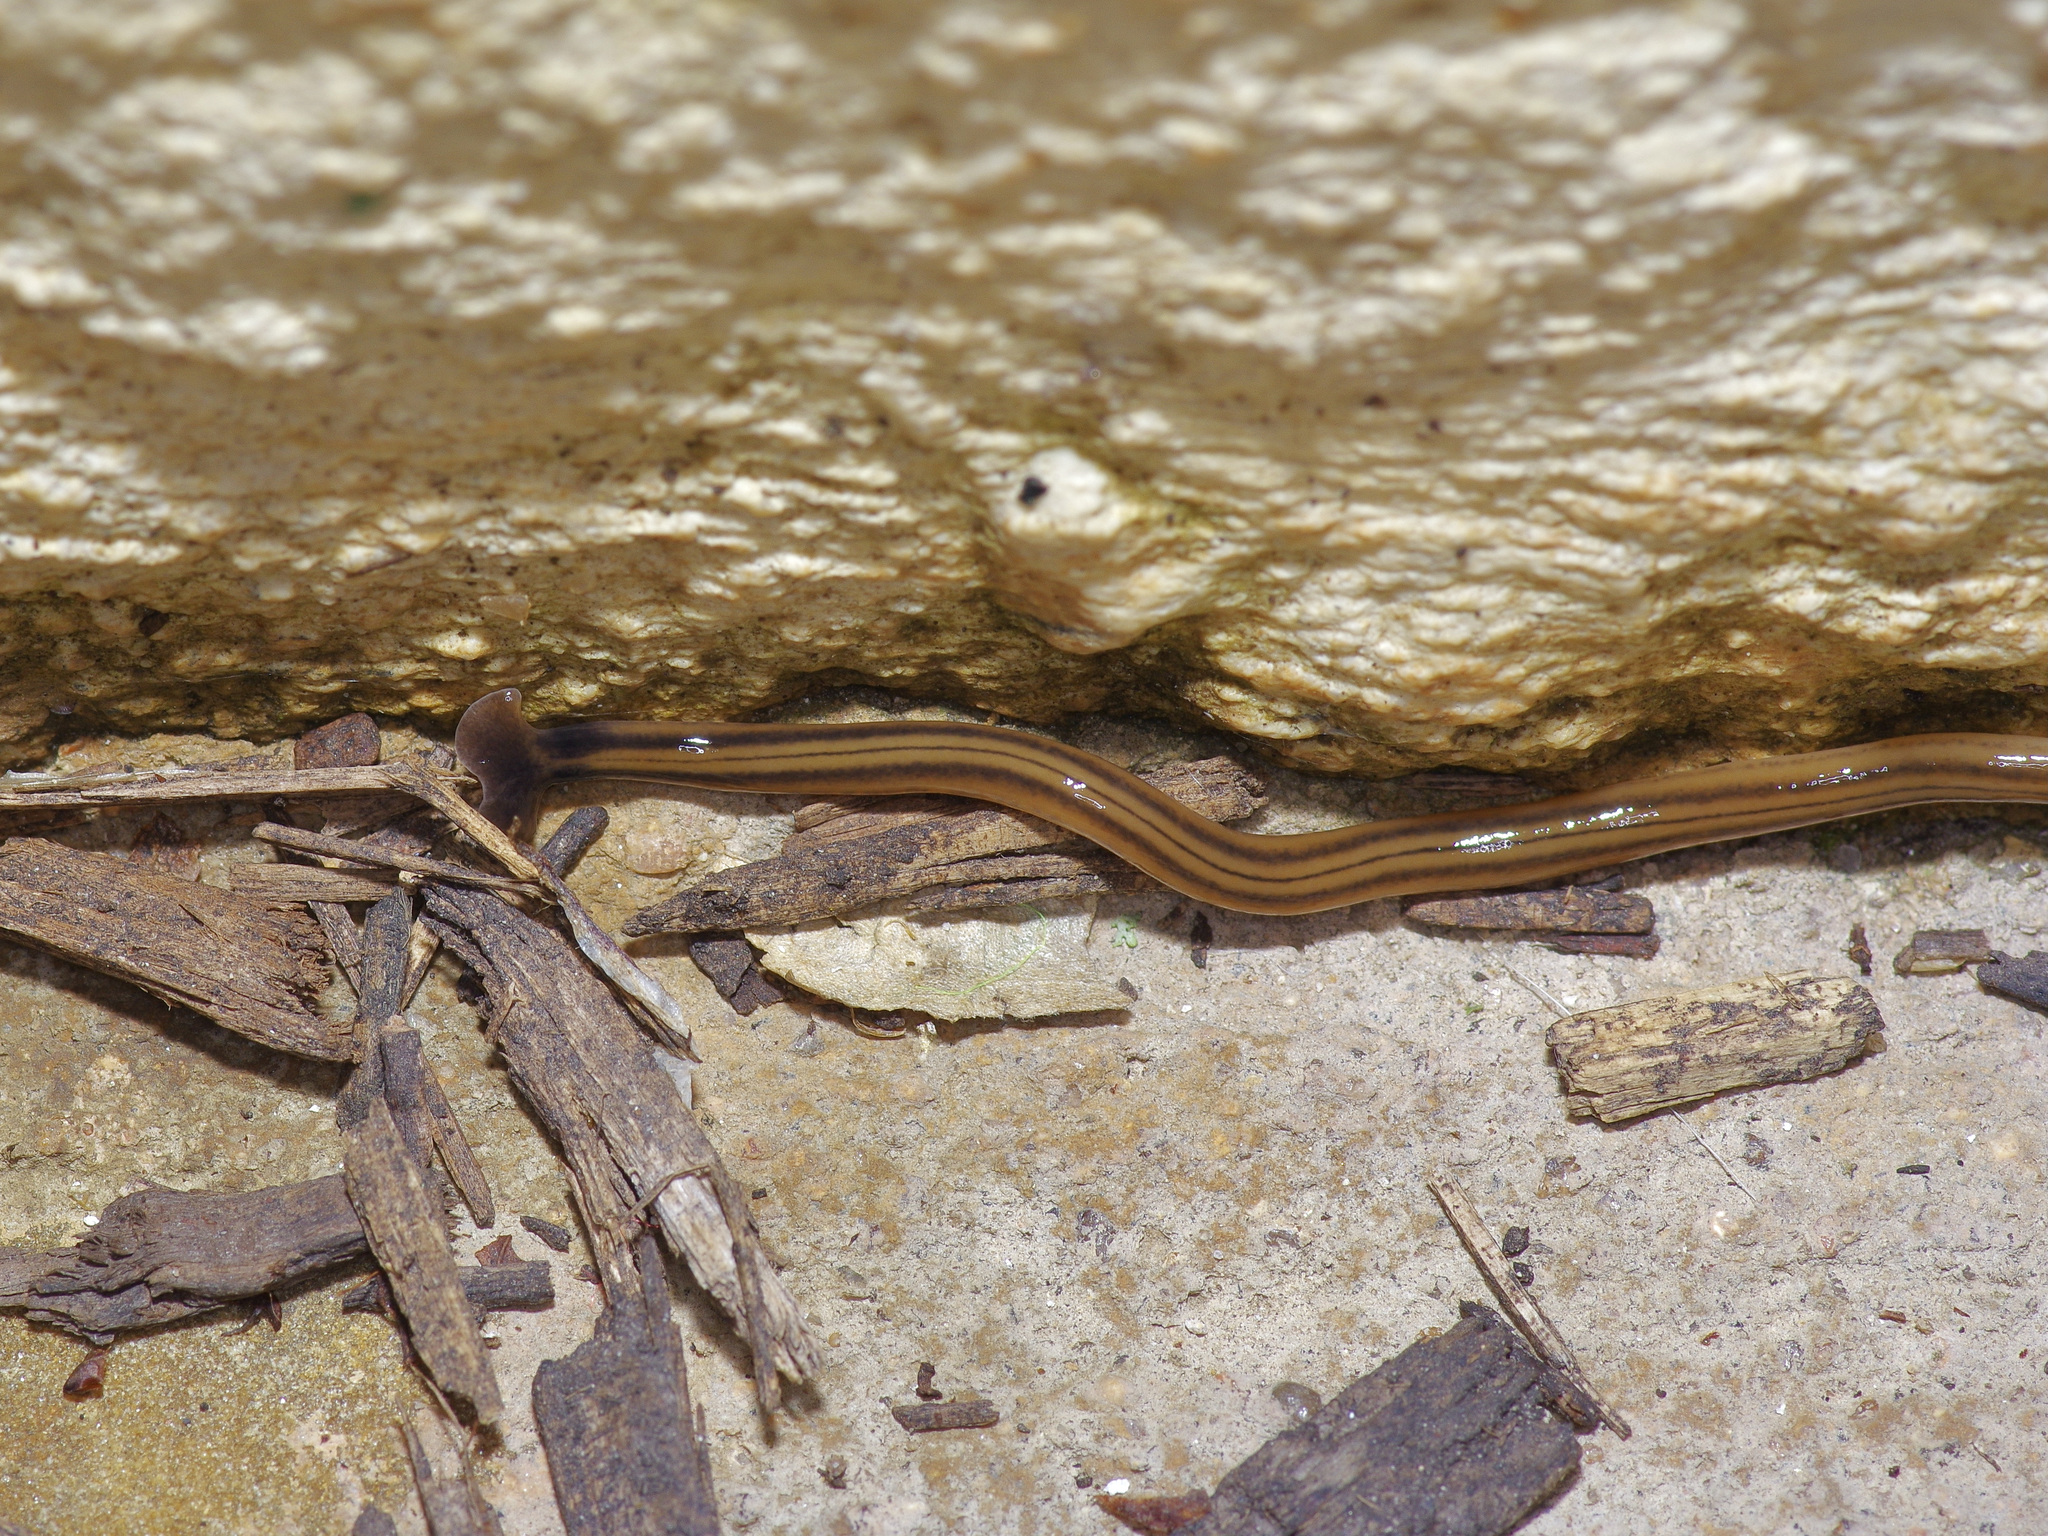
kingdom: Animalia
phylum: Platyhelminthes
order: Tricladida
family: Geoplanidae
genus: Bipalium
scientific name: Bipalium kewense
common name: Hammerhead flatworm
